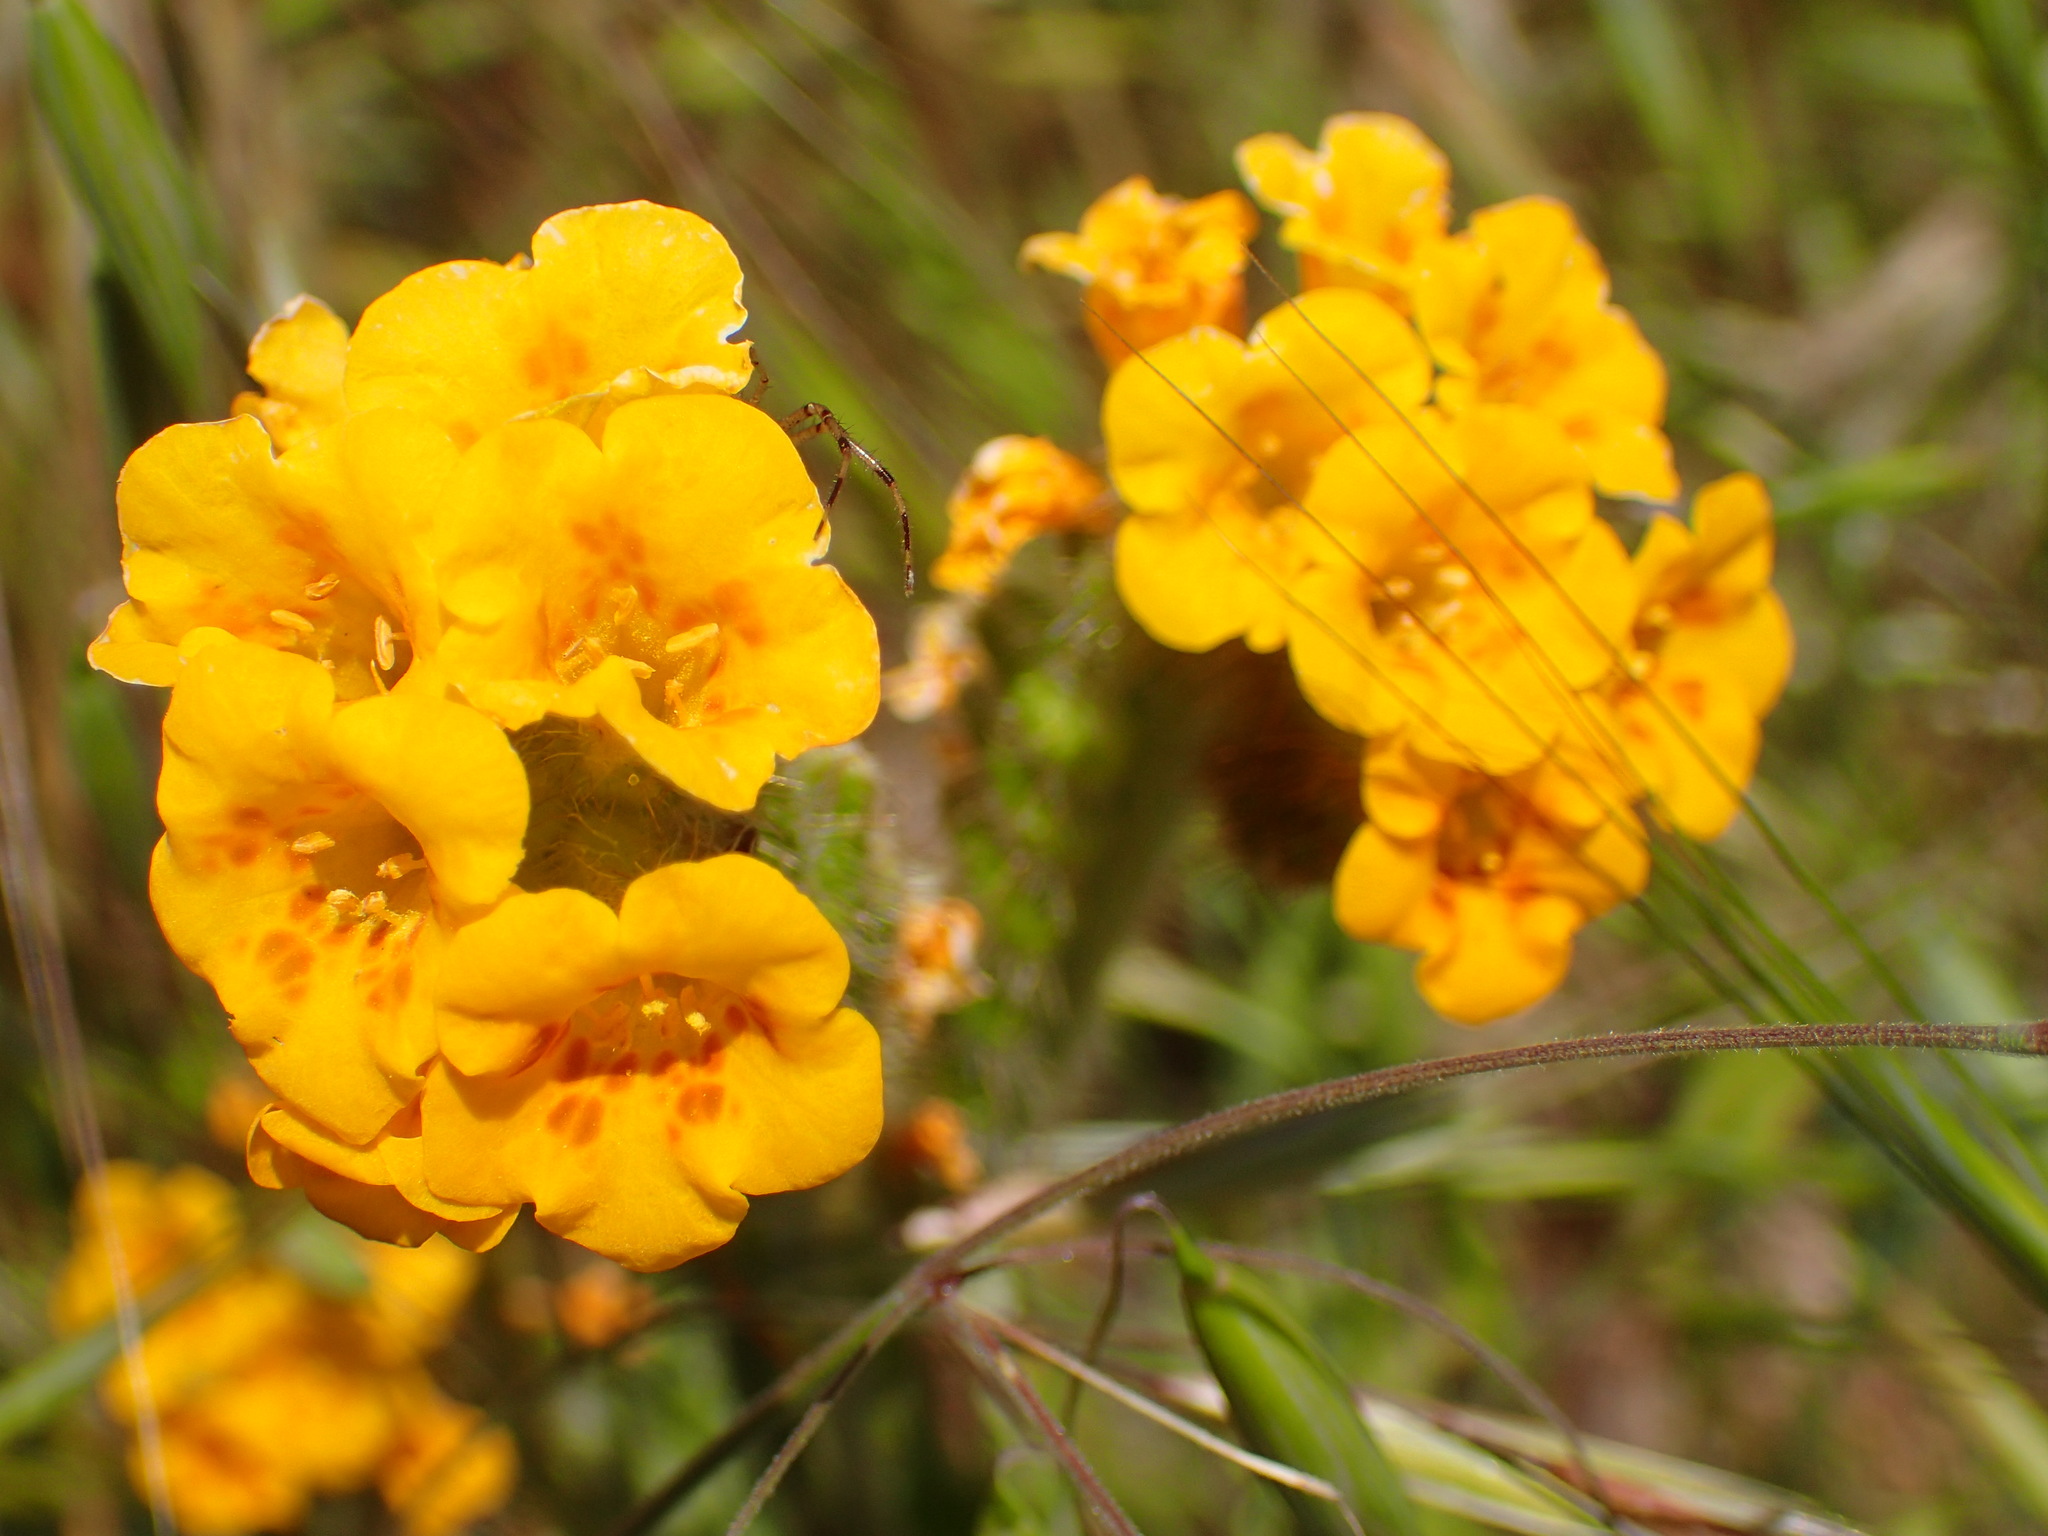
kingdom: Plantae
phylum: Tracheophyta
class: Magnoliopsida
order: Boraginales
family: Boraginaceae
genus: Amsinckia
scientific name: Amsinckia douglasiana
